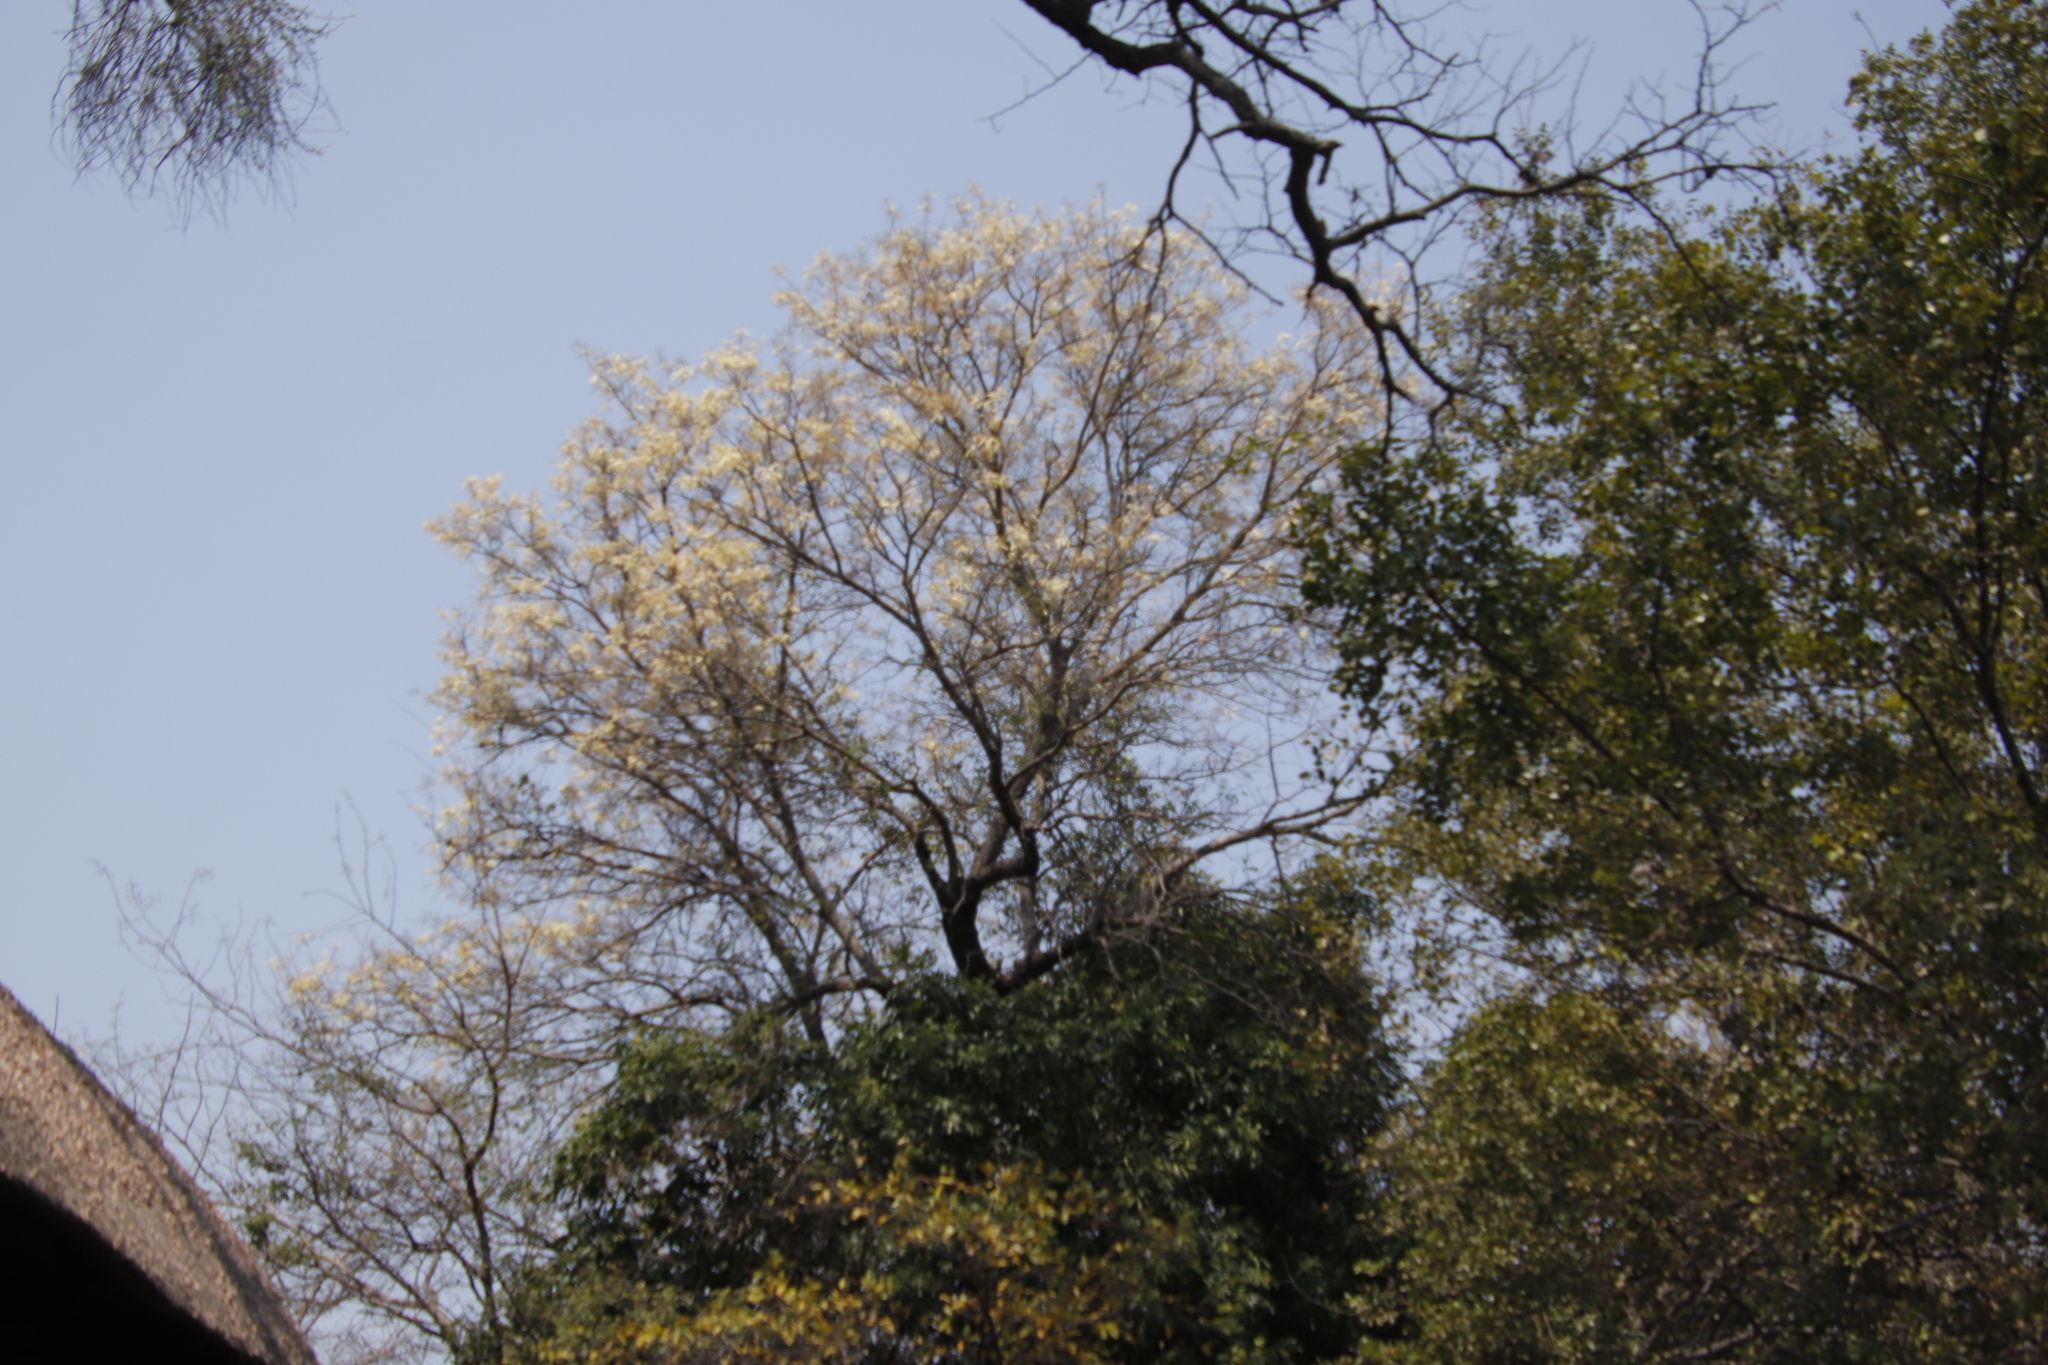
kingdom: Plantae
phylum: Tracheophyta
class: Magnoliopsida
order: Fabales
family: Fabaceae
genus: Senegalia
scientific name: Senegalia nigrescens
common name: Knobthorn
